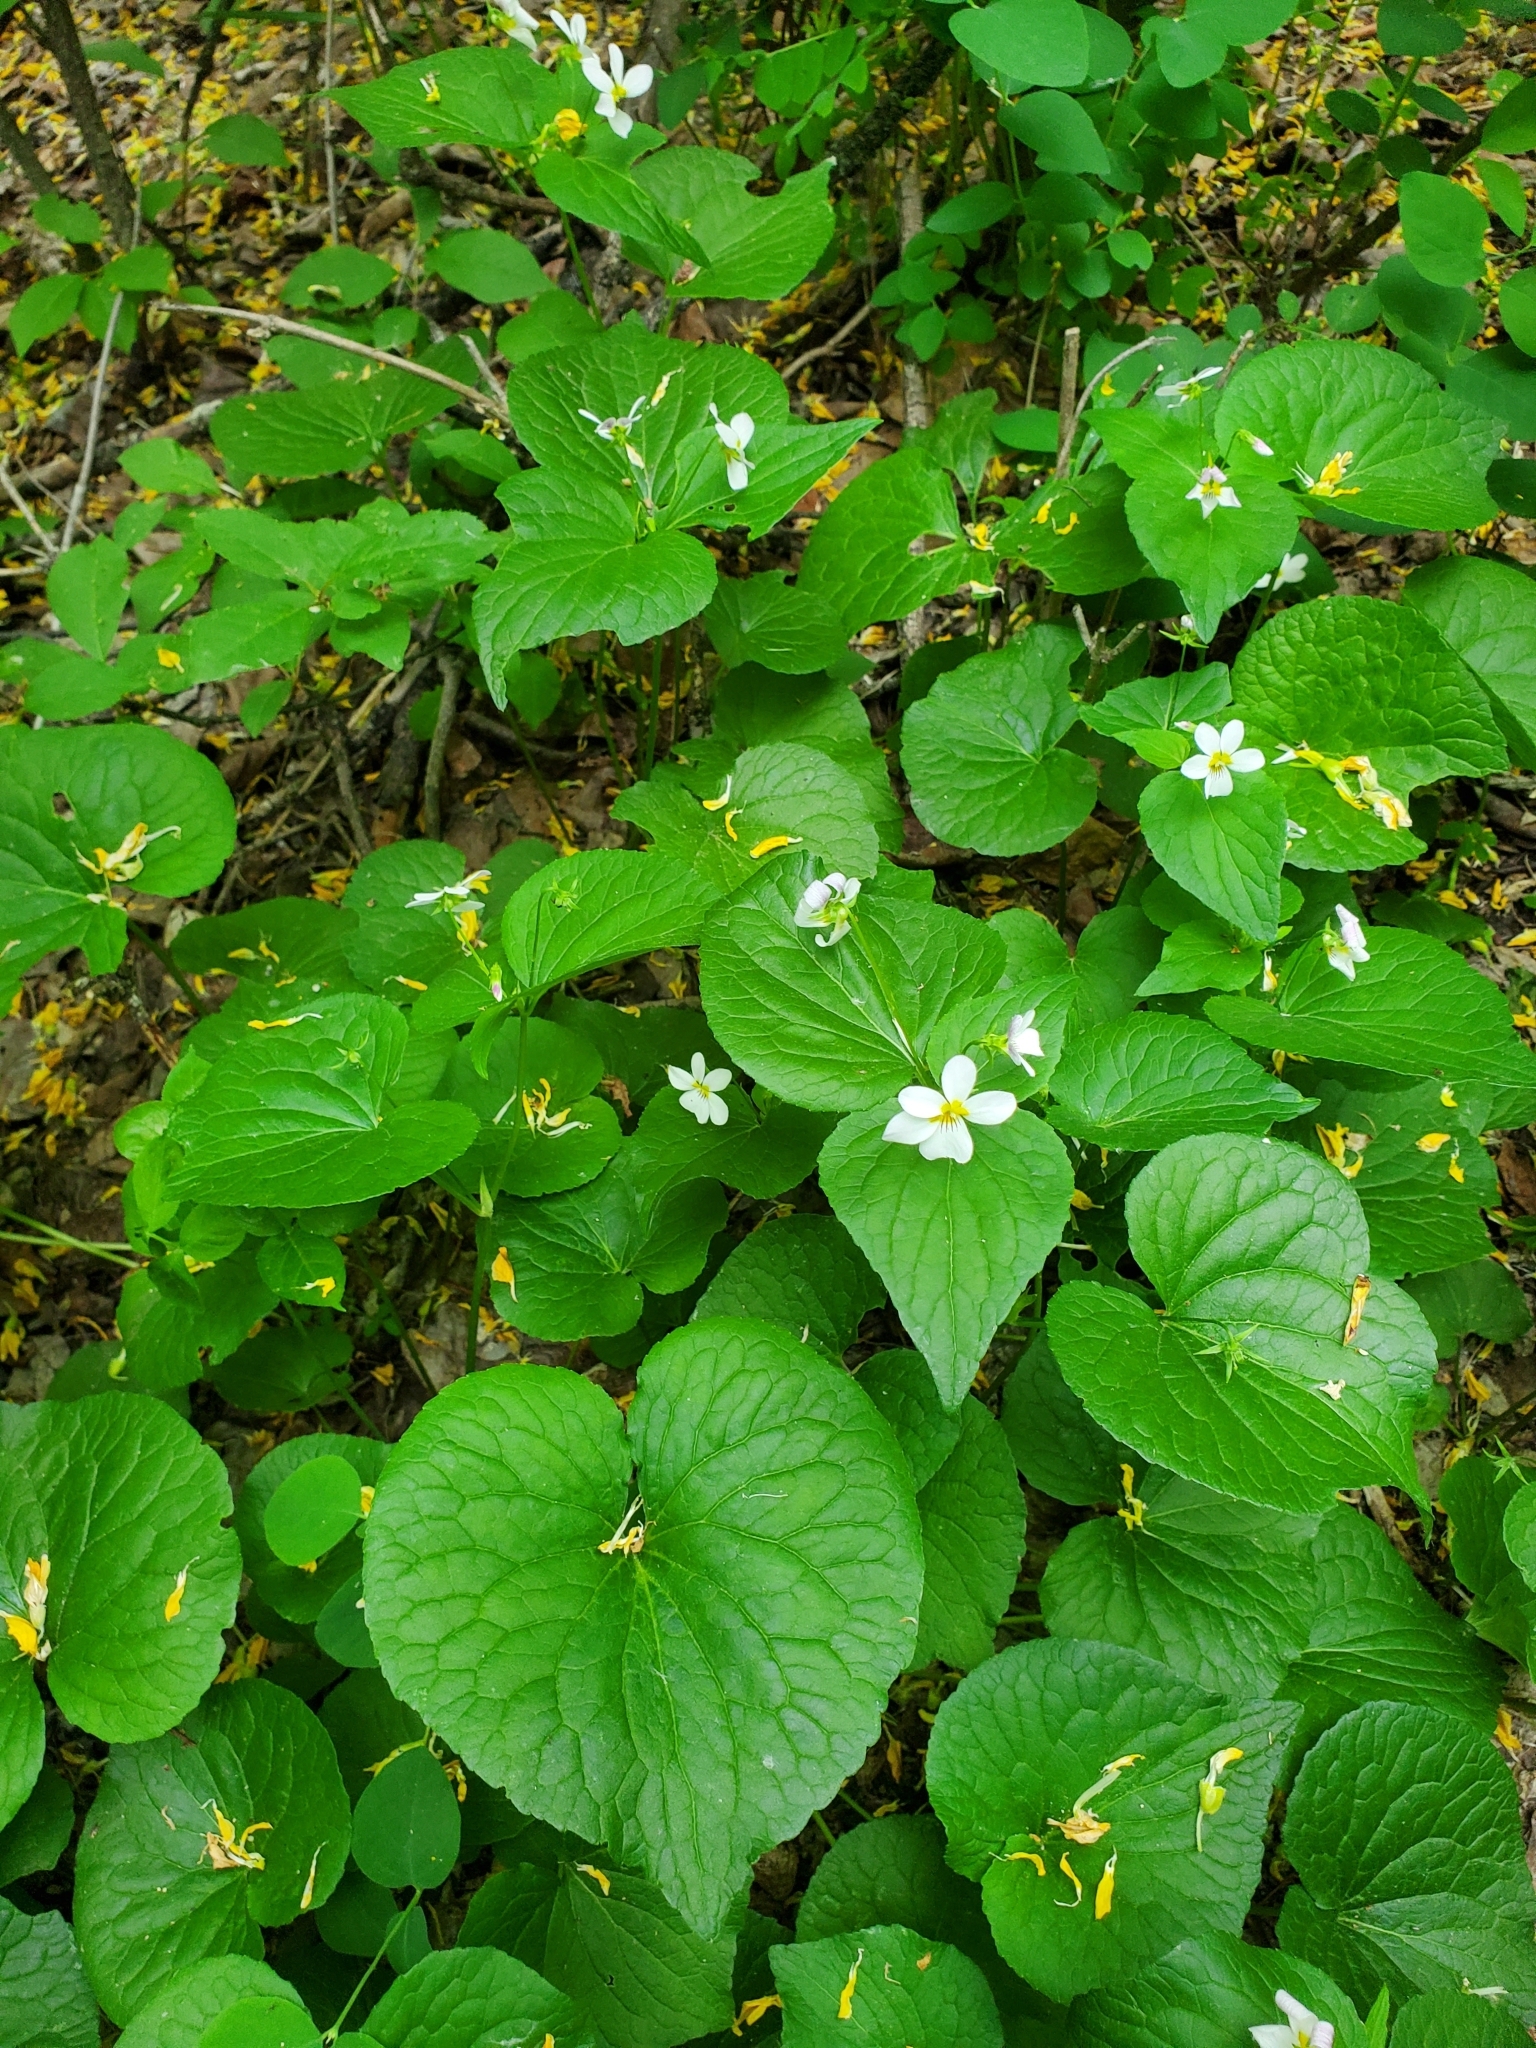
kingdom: Plantae
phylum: Tracheophyta
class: Magnoliopsida
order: Malpighiales
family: Violaceae
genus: Viola
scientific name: Viola canadensis
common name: Canada violet
